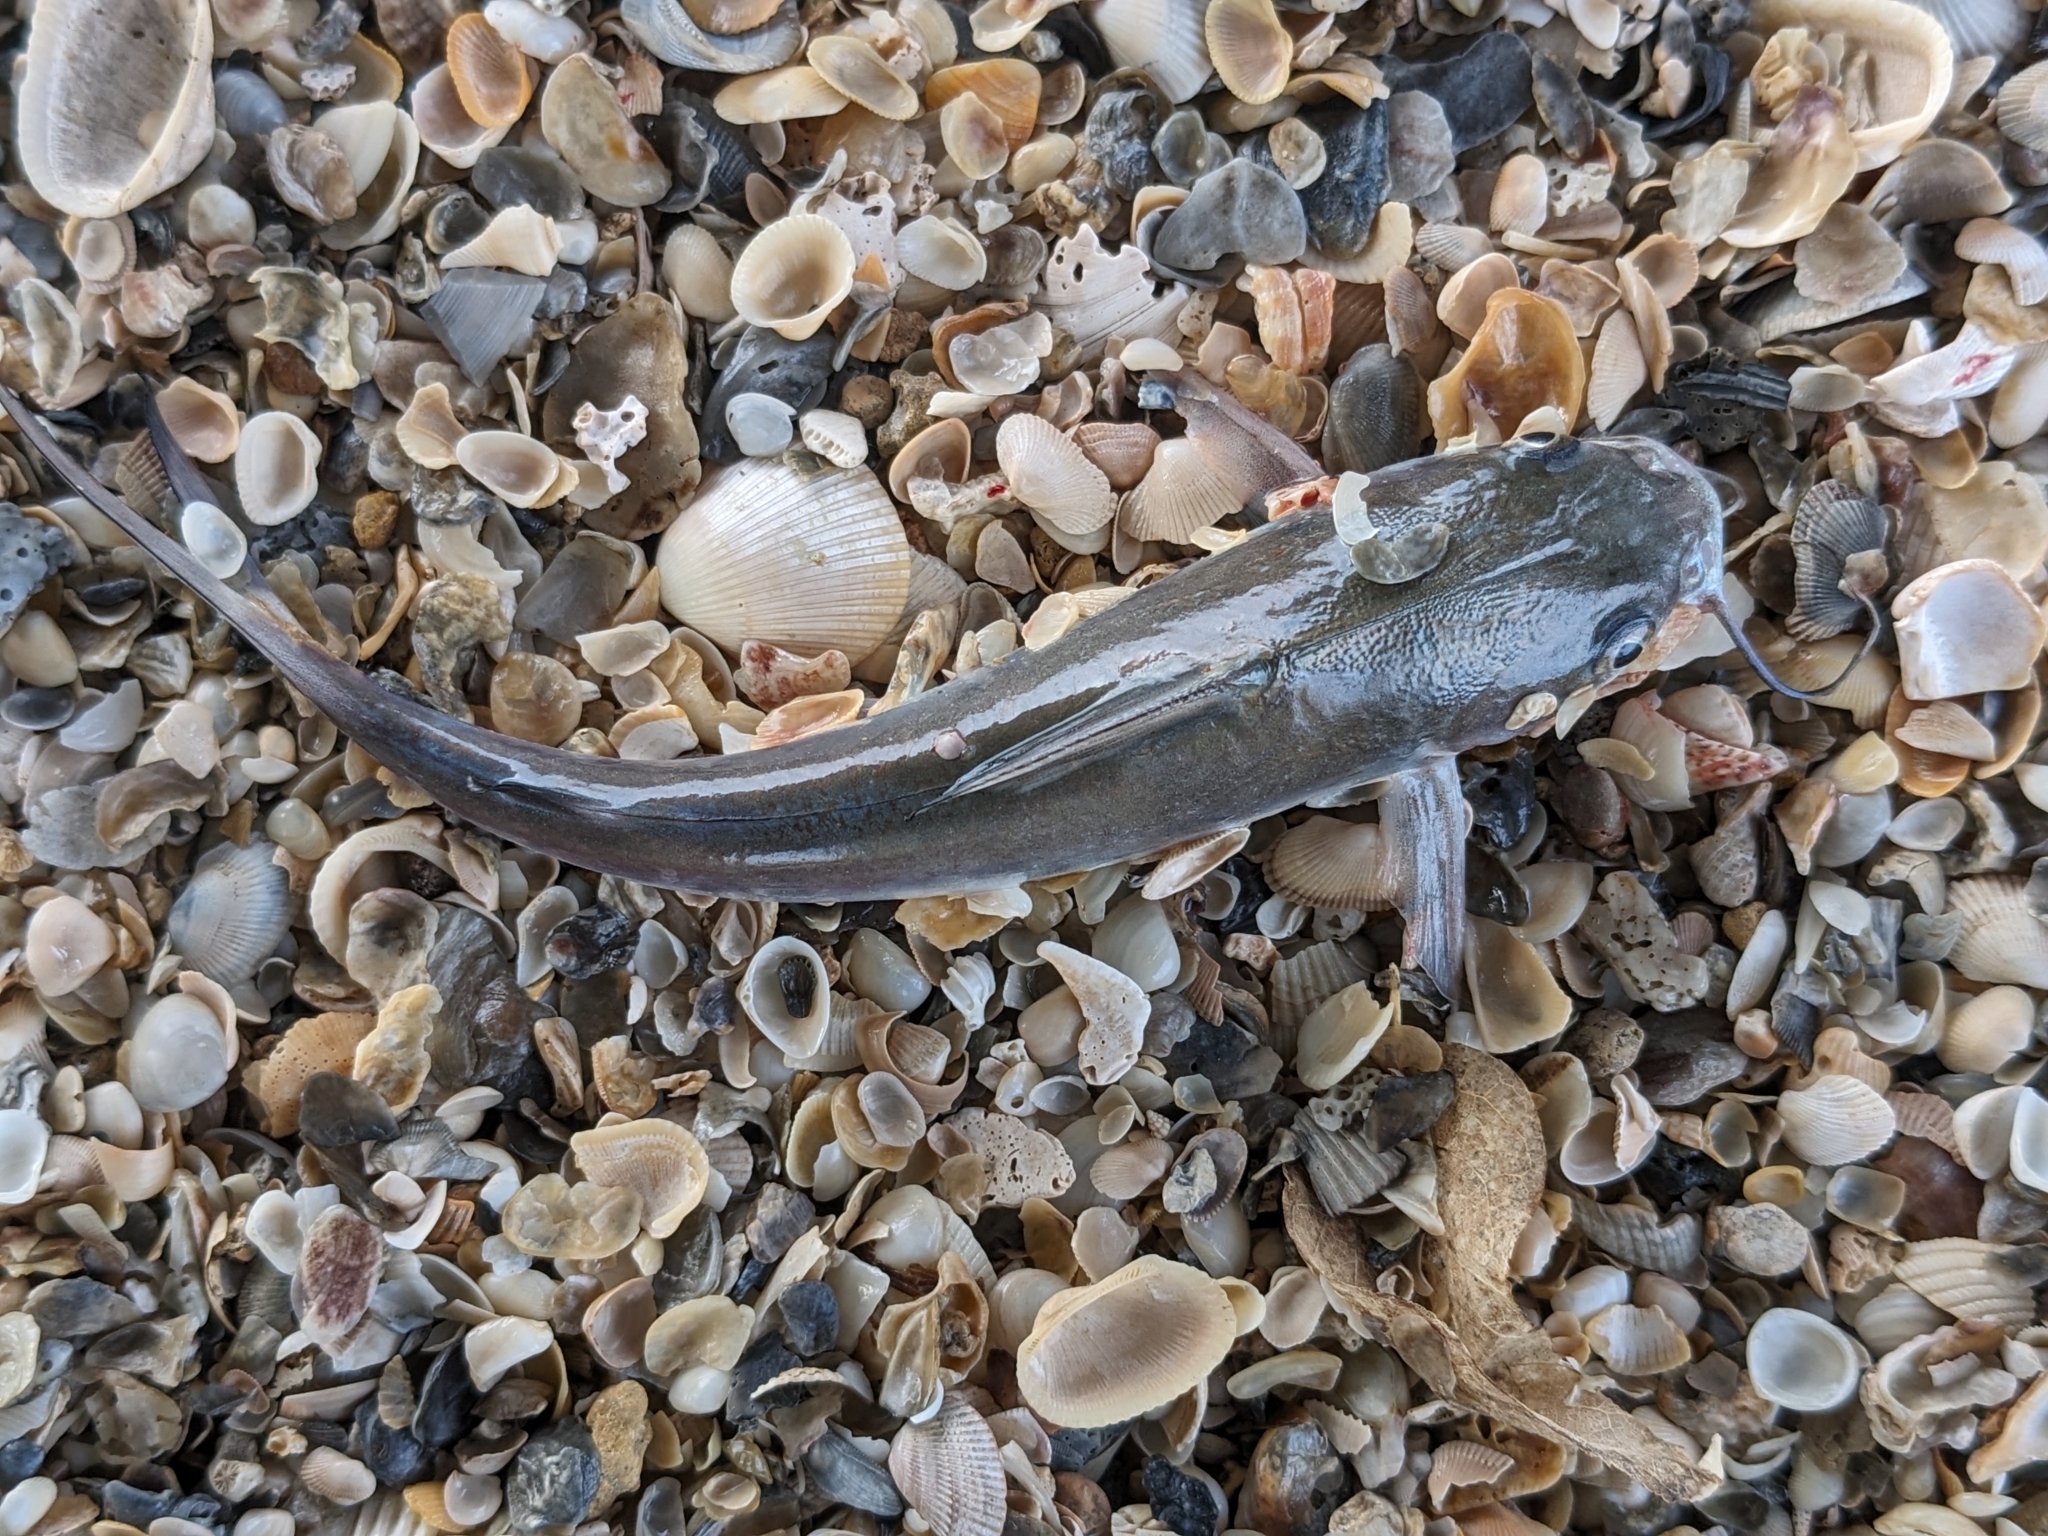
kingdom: Animalia
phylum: Chordata
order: Siluriformes
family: Ariidae
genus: Ariopsis
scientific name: Ariopsis felis
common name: Hardhead catfish
